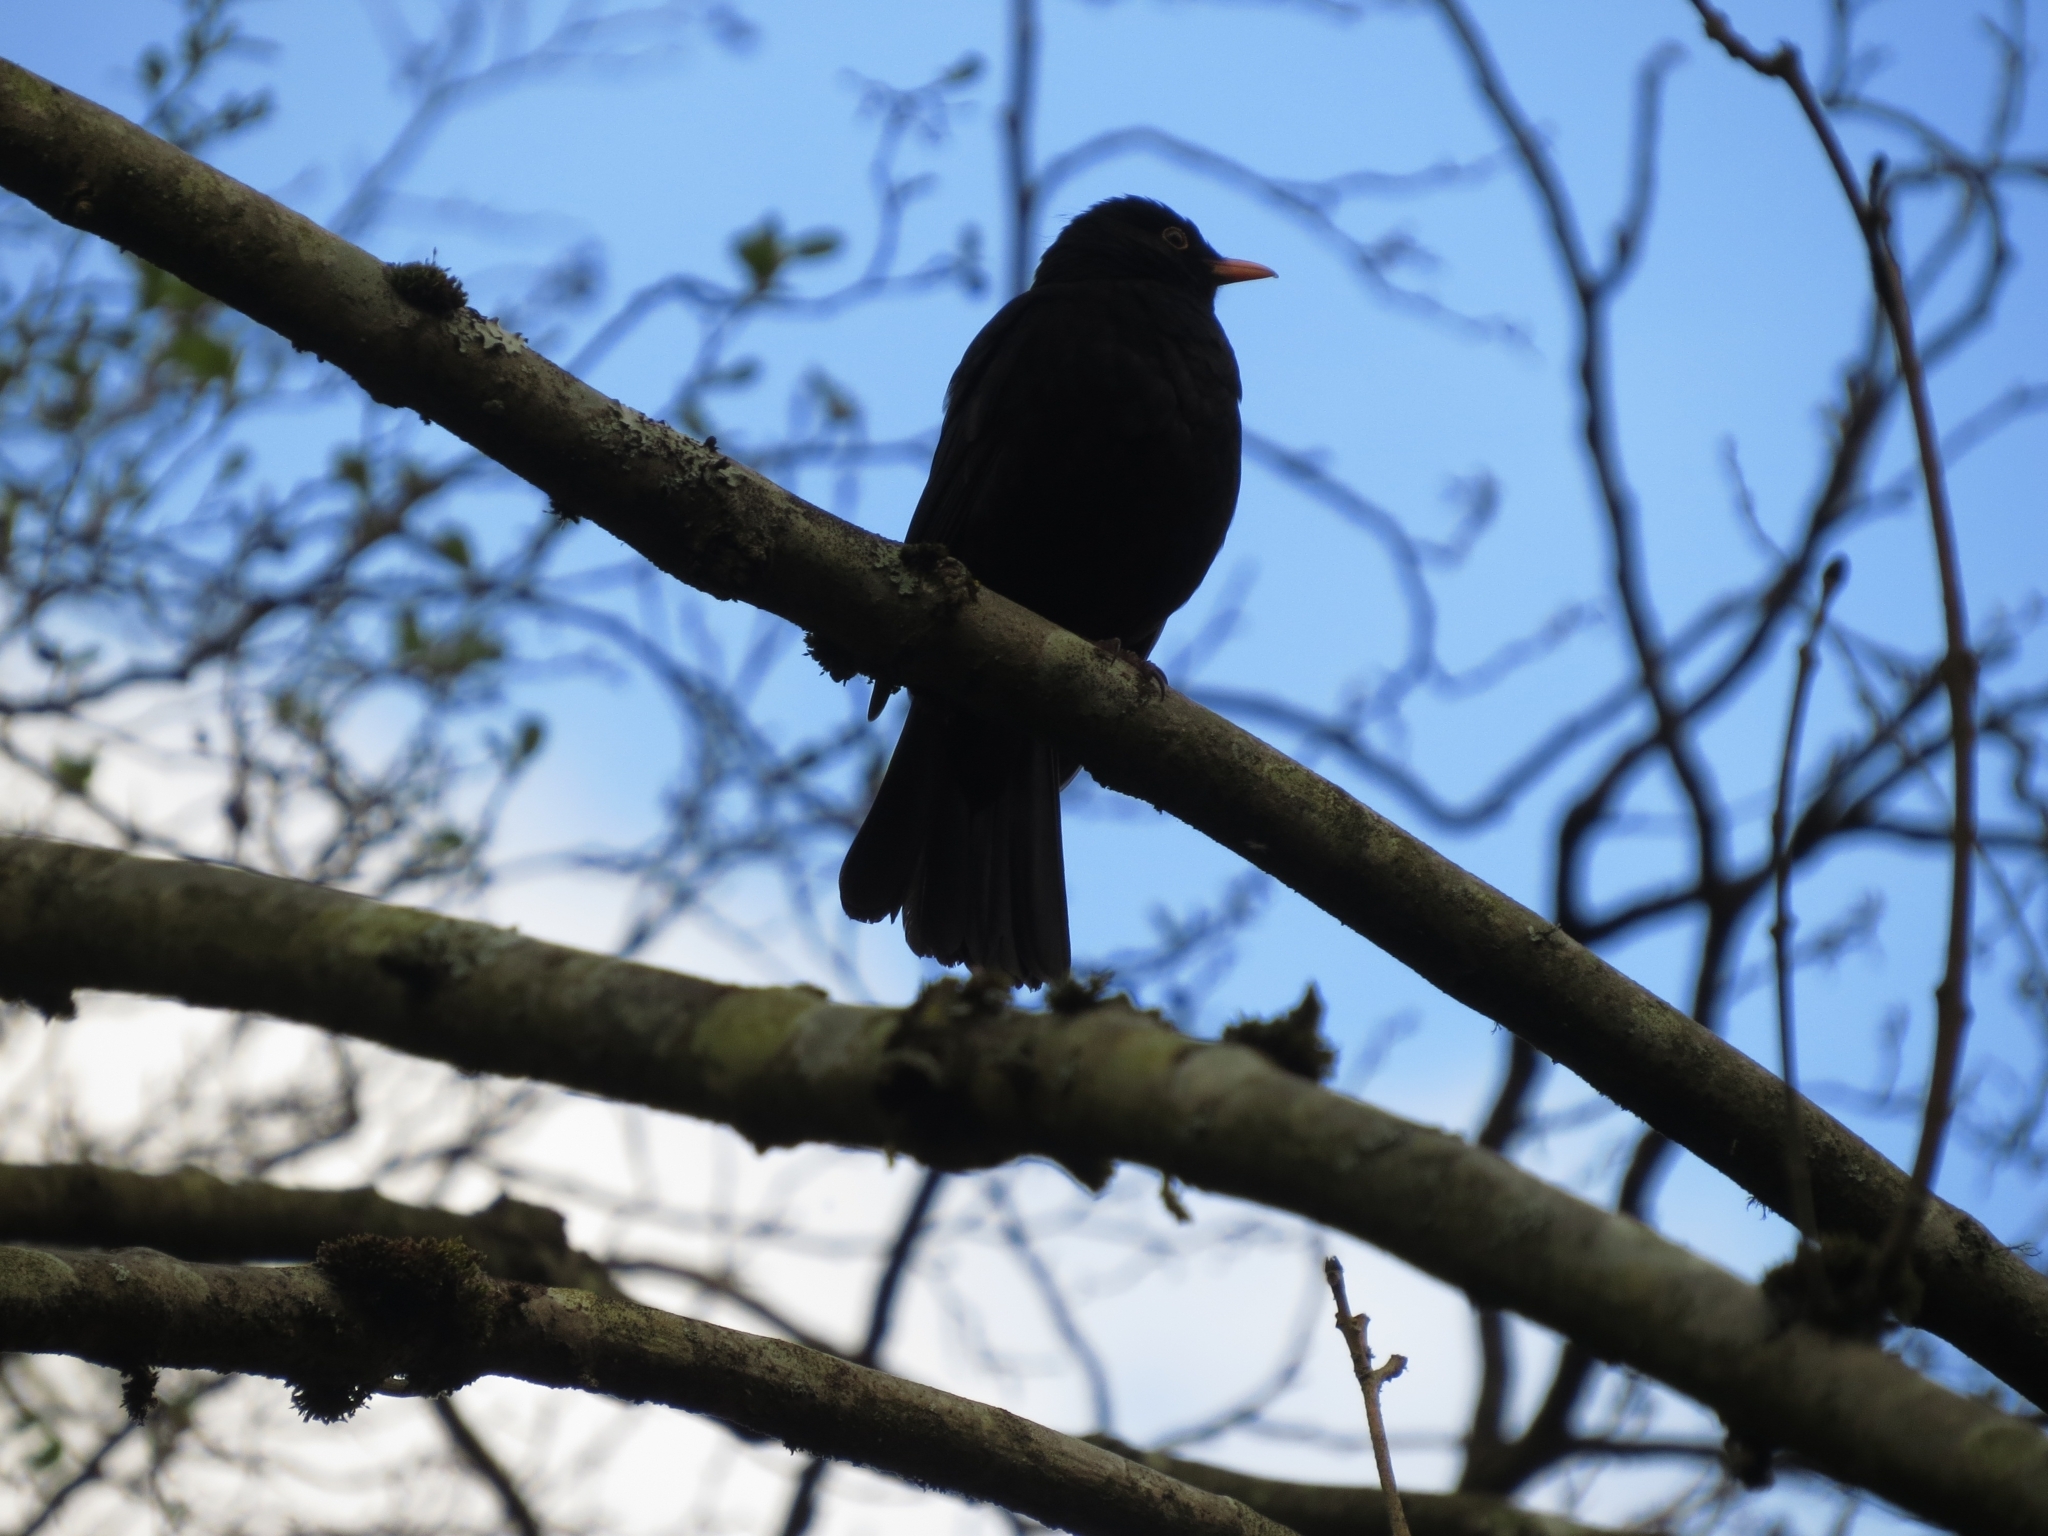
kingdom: Animalia
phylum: Chordata
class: Aves
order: Passeriformes
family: Turdidae
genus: Turdus
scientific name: Turdus merula
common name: Common blackbird
